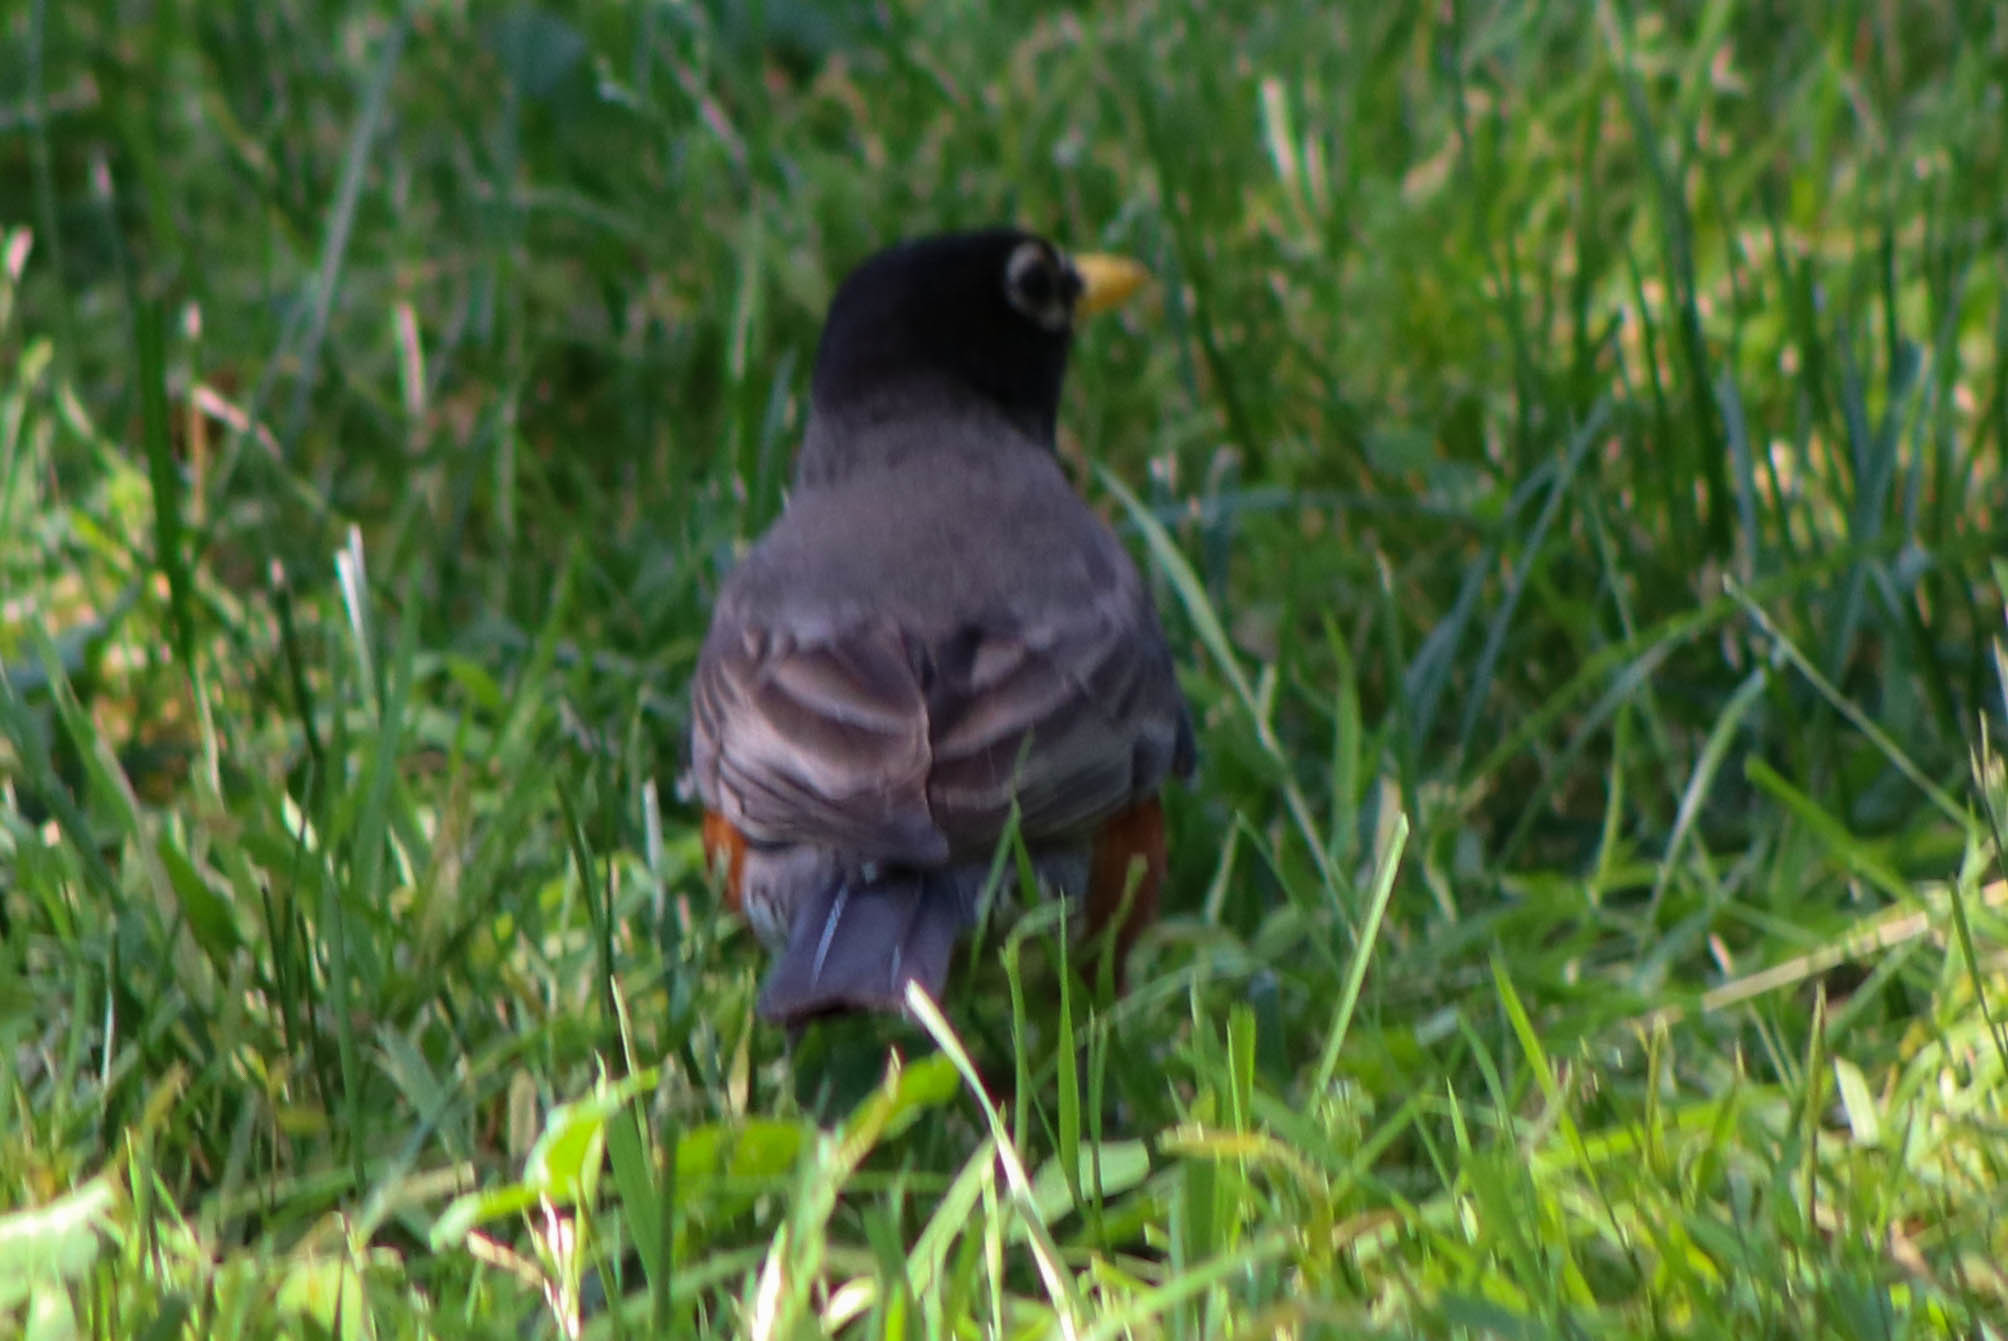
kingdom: Animalia
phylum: Chordata
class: Aves
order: Passeriformes
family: Turdidae
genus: Turdus
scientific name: Turdus migratorius
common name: American robin
